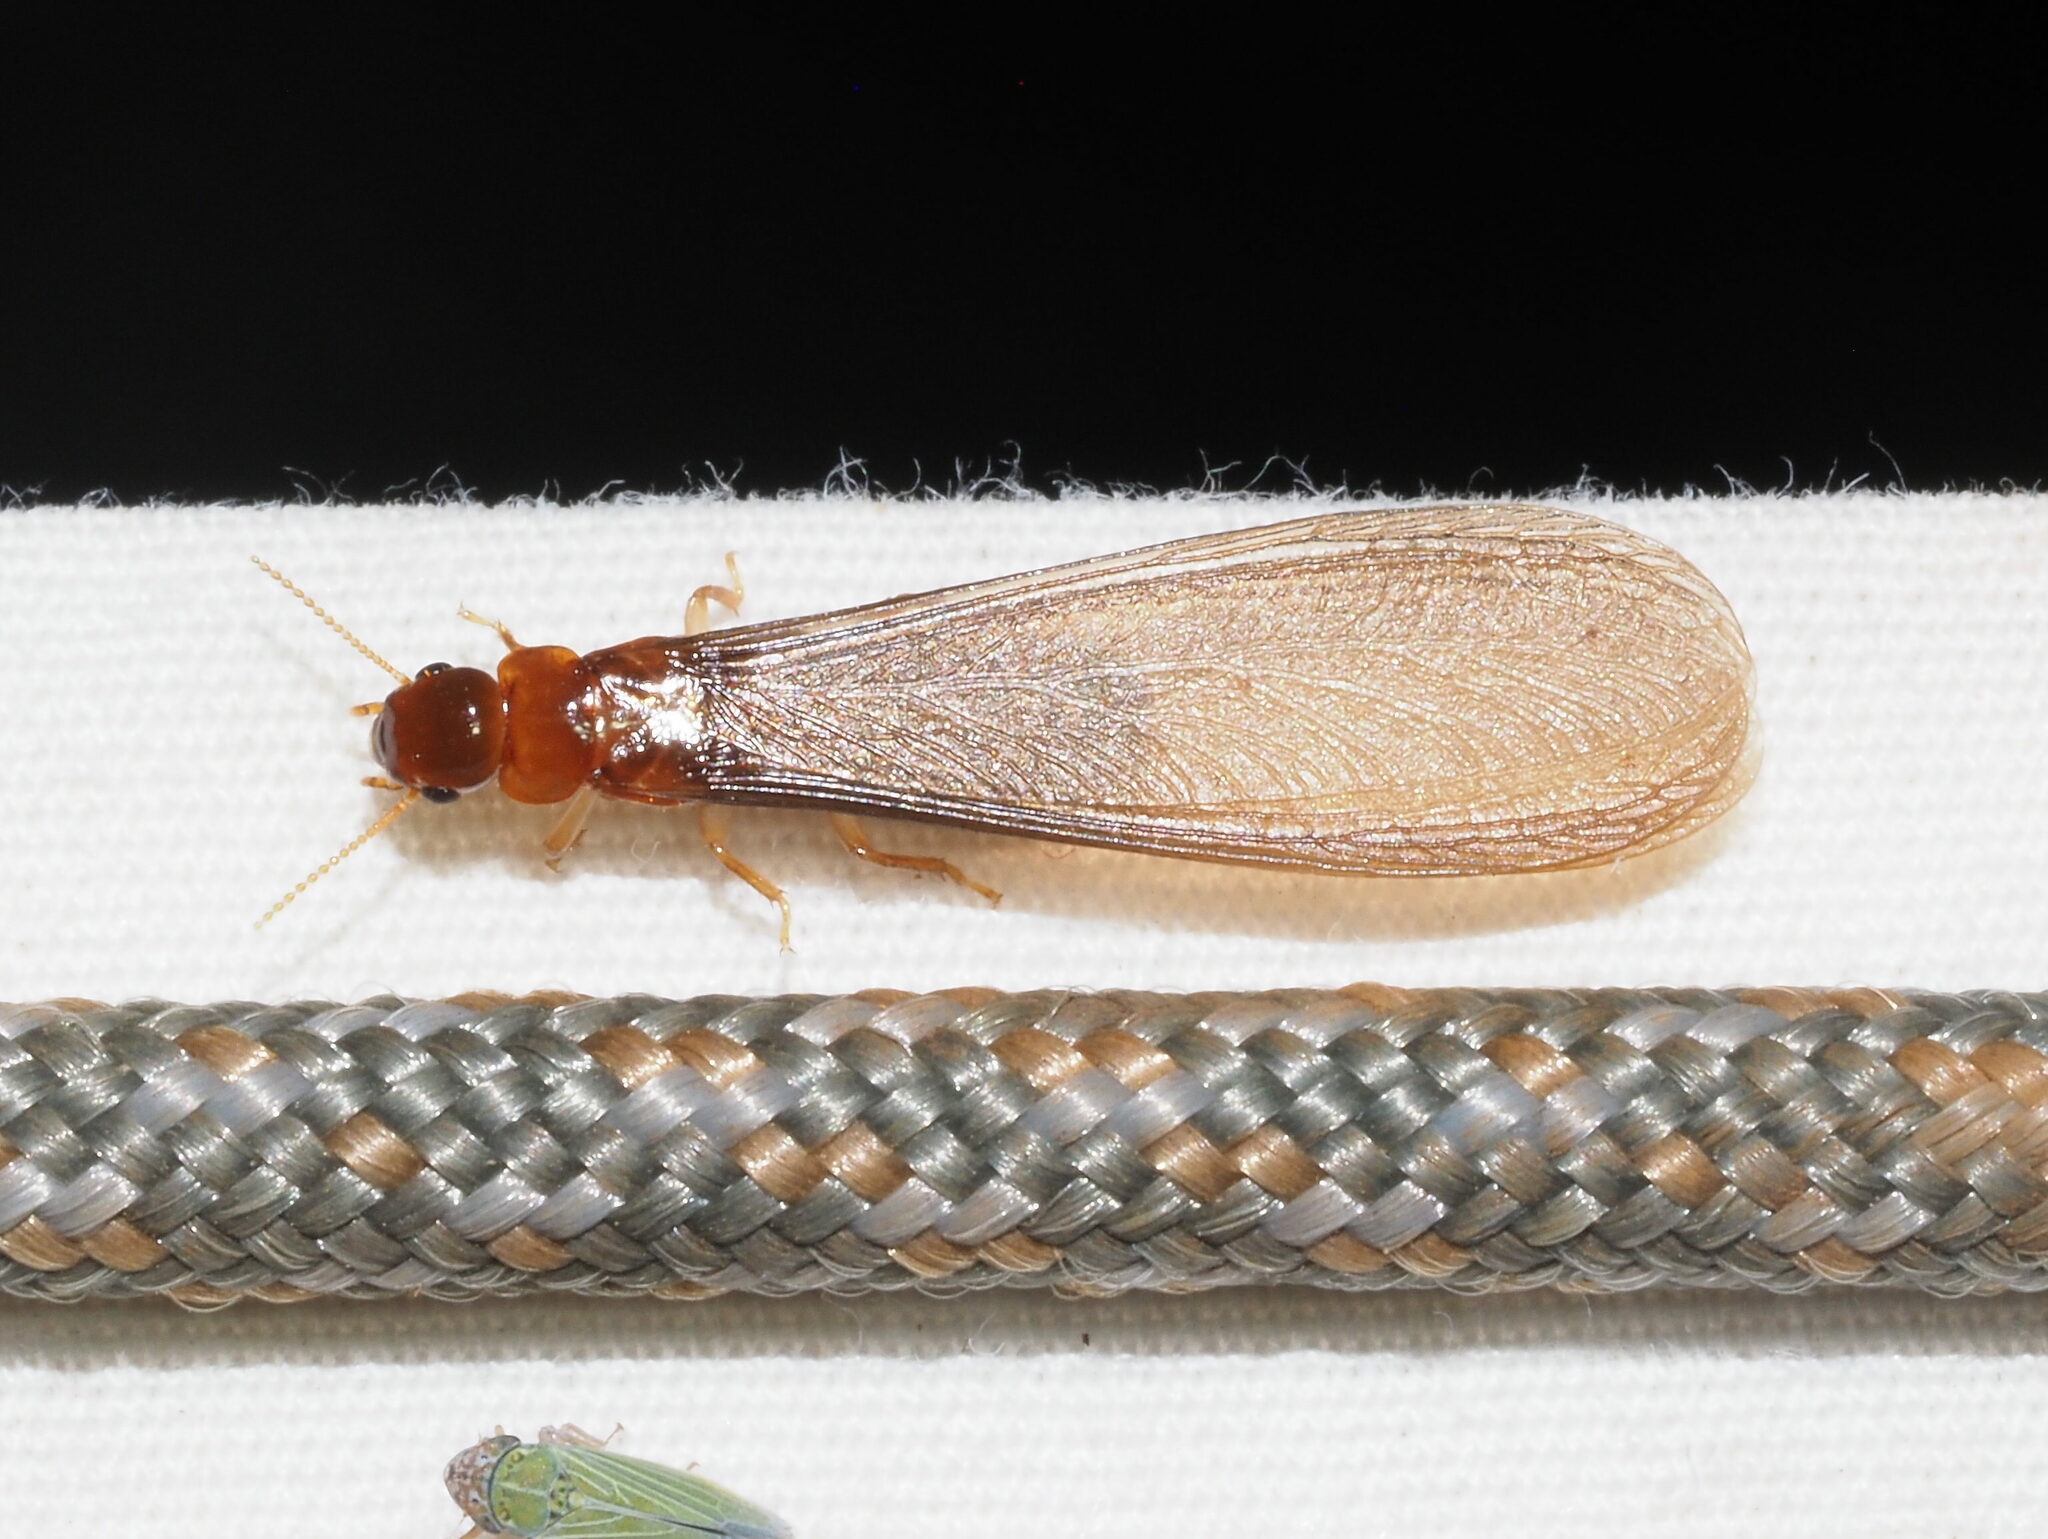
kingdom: Animalia
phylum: Arthropoda
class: Insecta
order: Blattodea
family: Kalotermitidae
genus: Neotermes
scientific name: Neotermes connexus
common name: Termite
